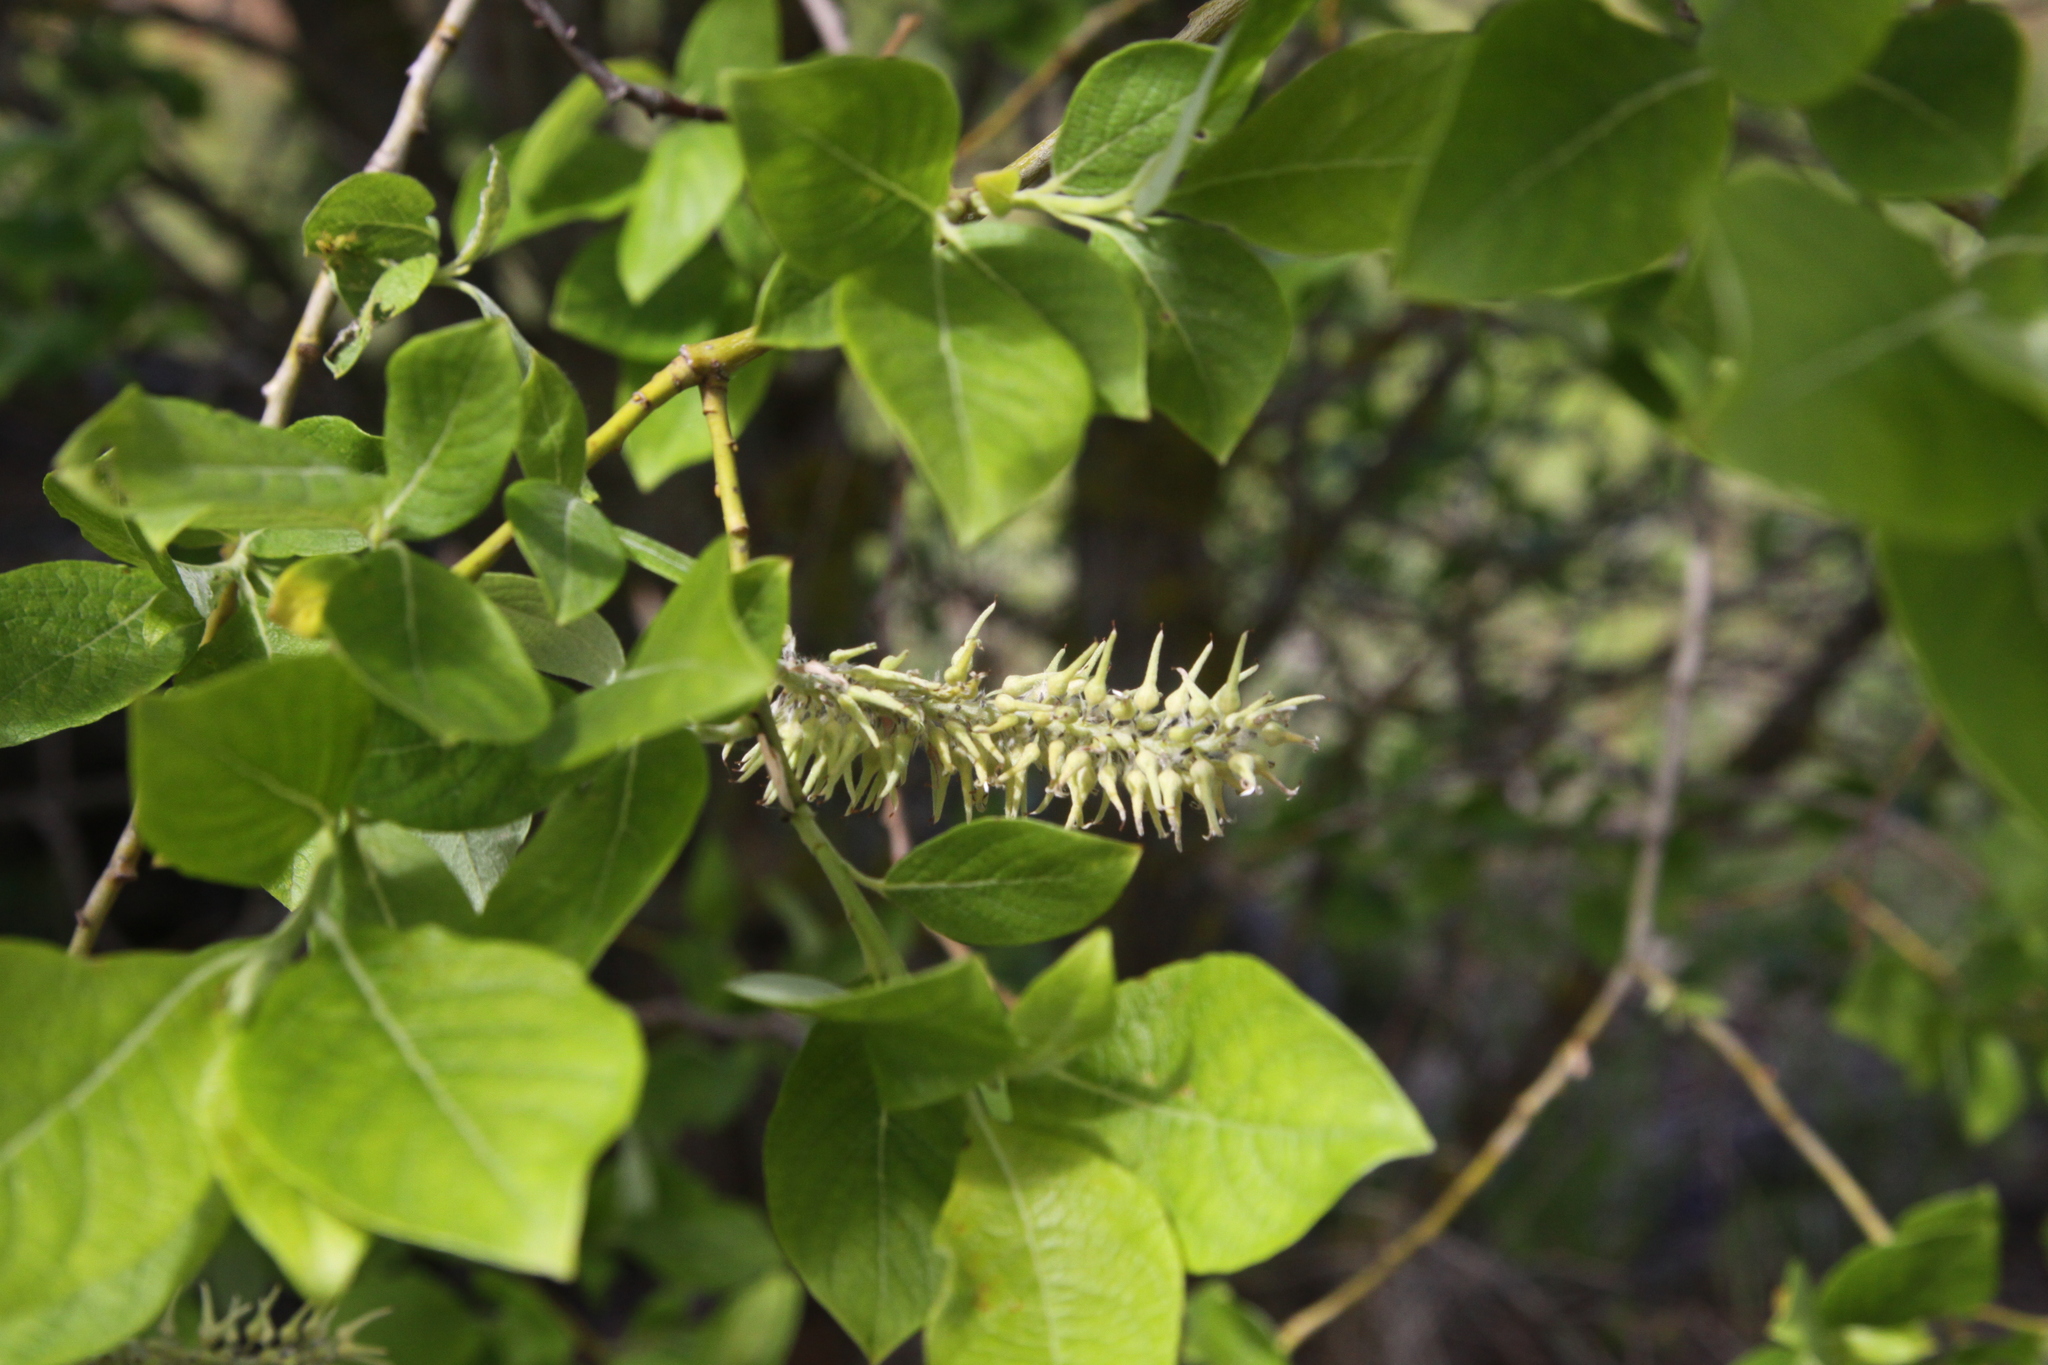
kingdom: Plantae
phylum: Tracheophyta
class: Magnoliopsida
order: Malpighiales
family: Salicaceae
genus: Salix
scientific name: Salix caprea
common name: Goat willow
